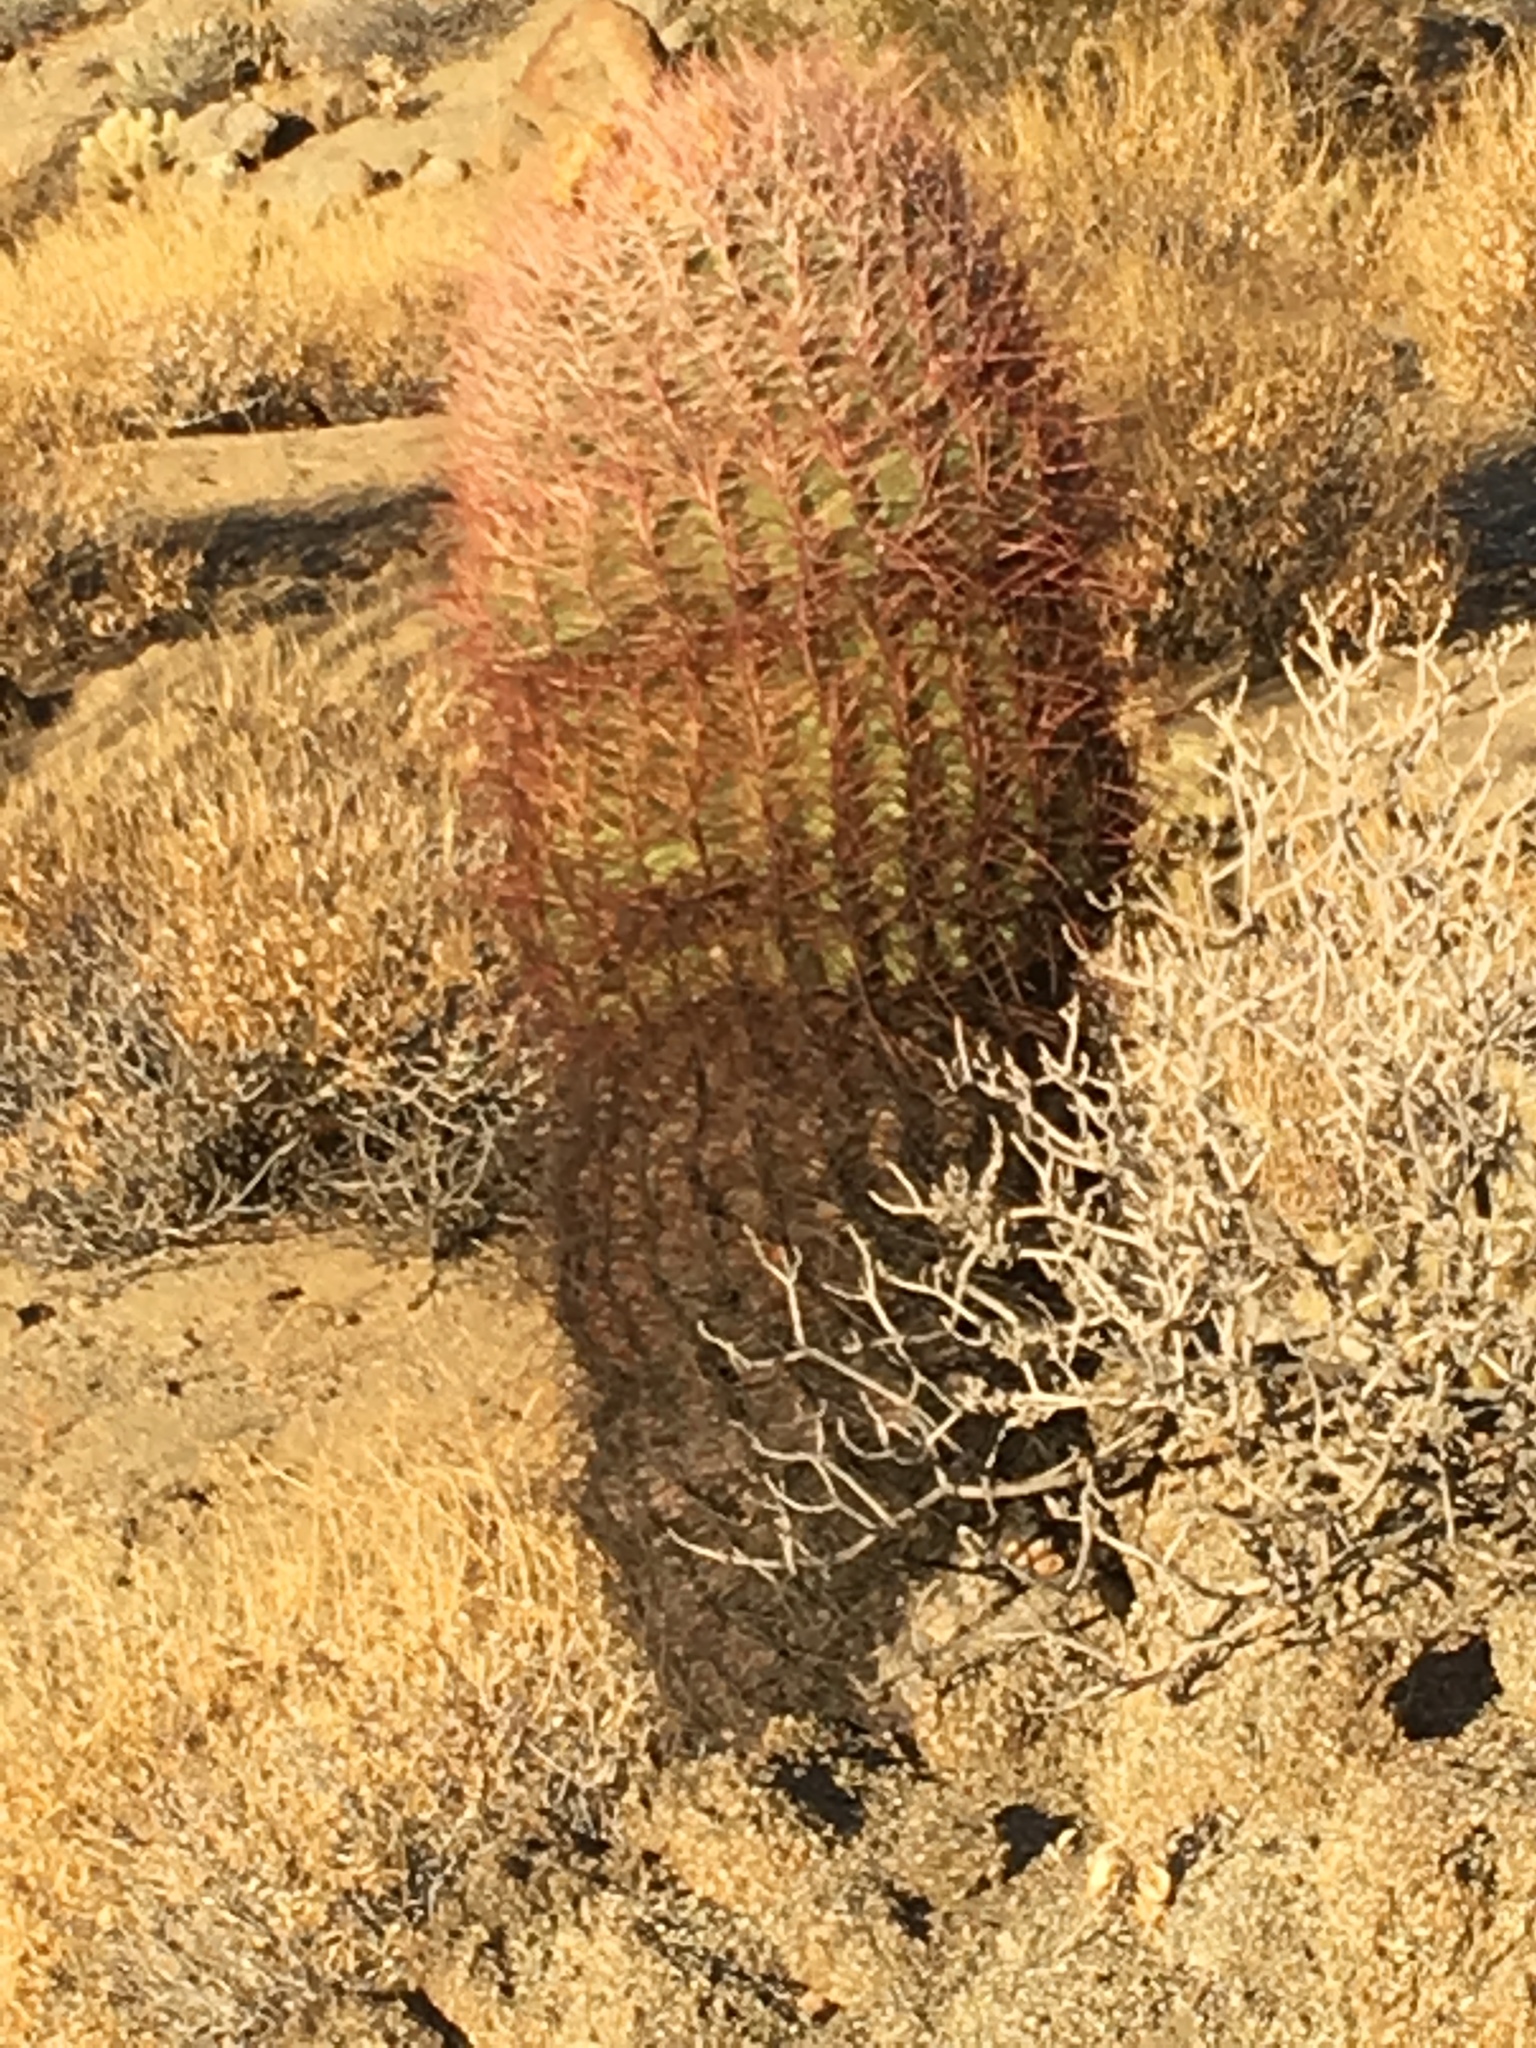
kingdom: Plantae
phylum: Tracheophyta
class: Magnoliopsida
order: Caryophyllales
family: Cactaceae
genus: Ferocactus
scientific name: Ferocactus cylindraceus
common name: California barrel cactus
